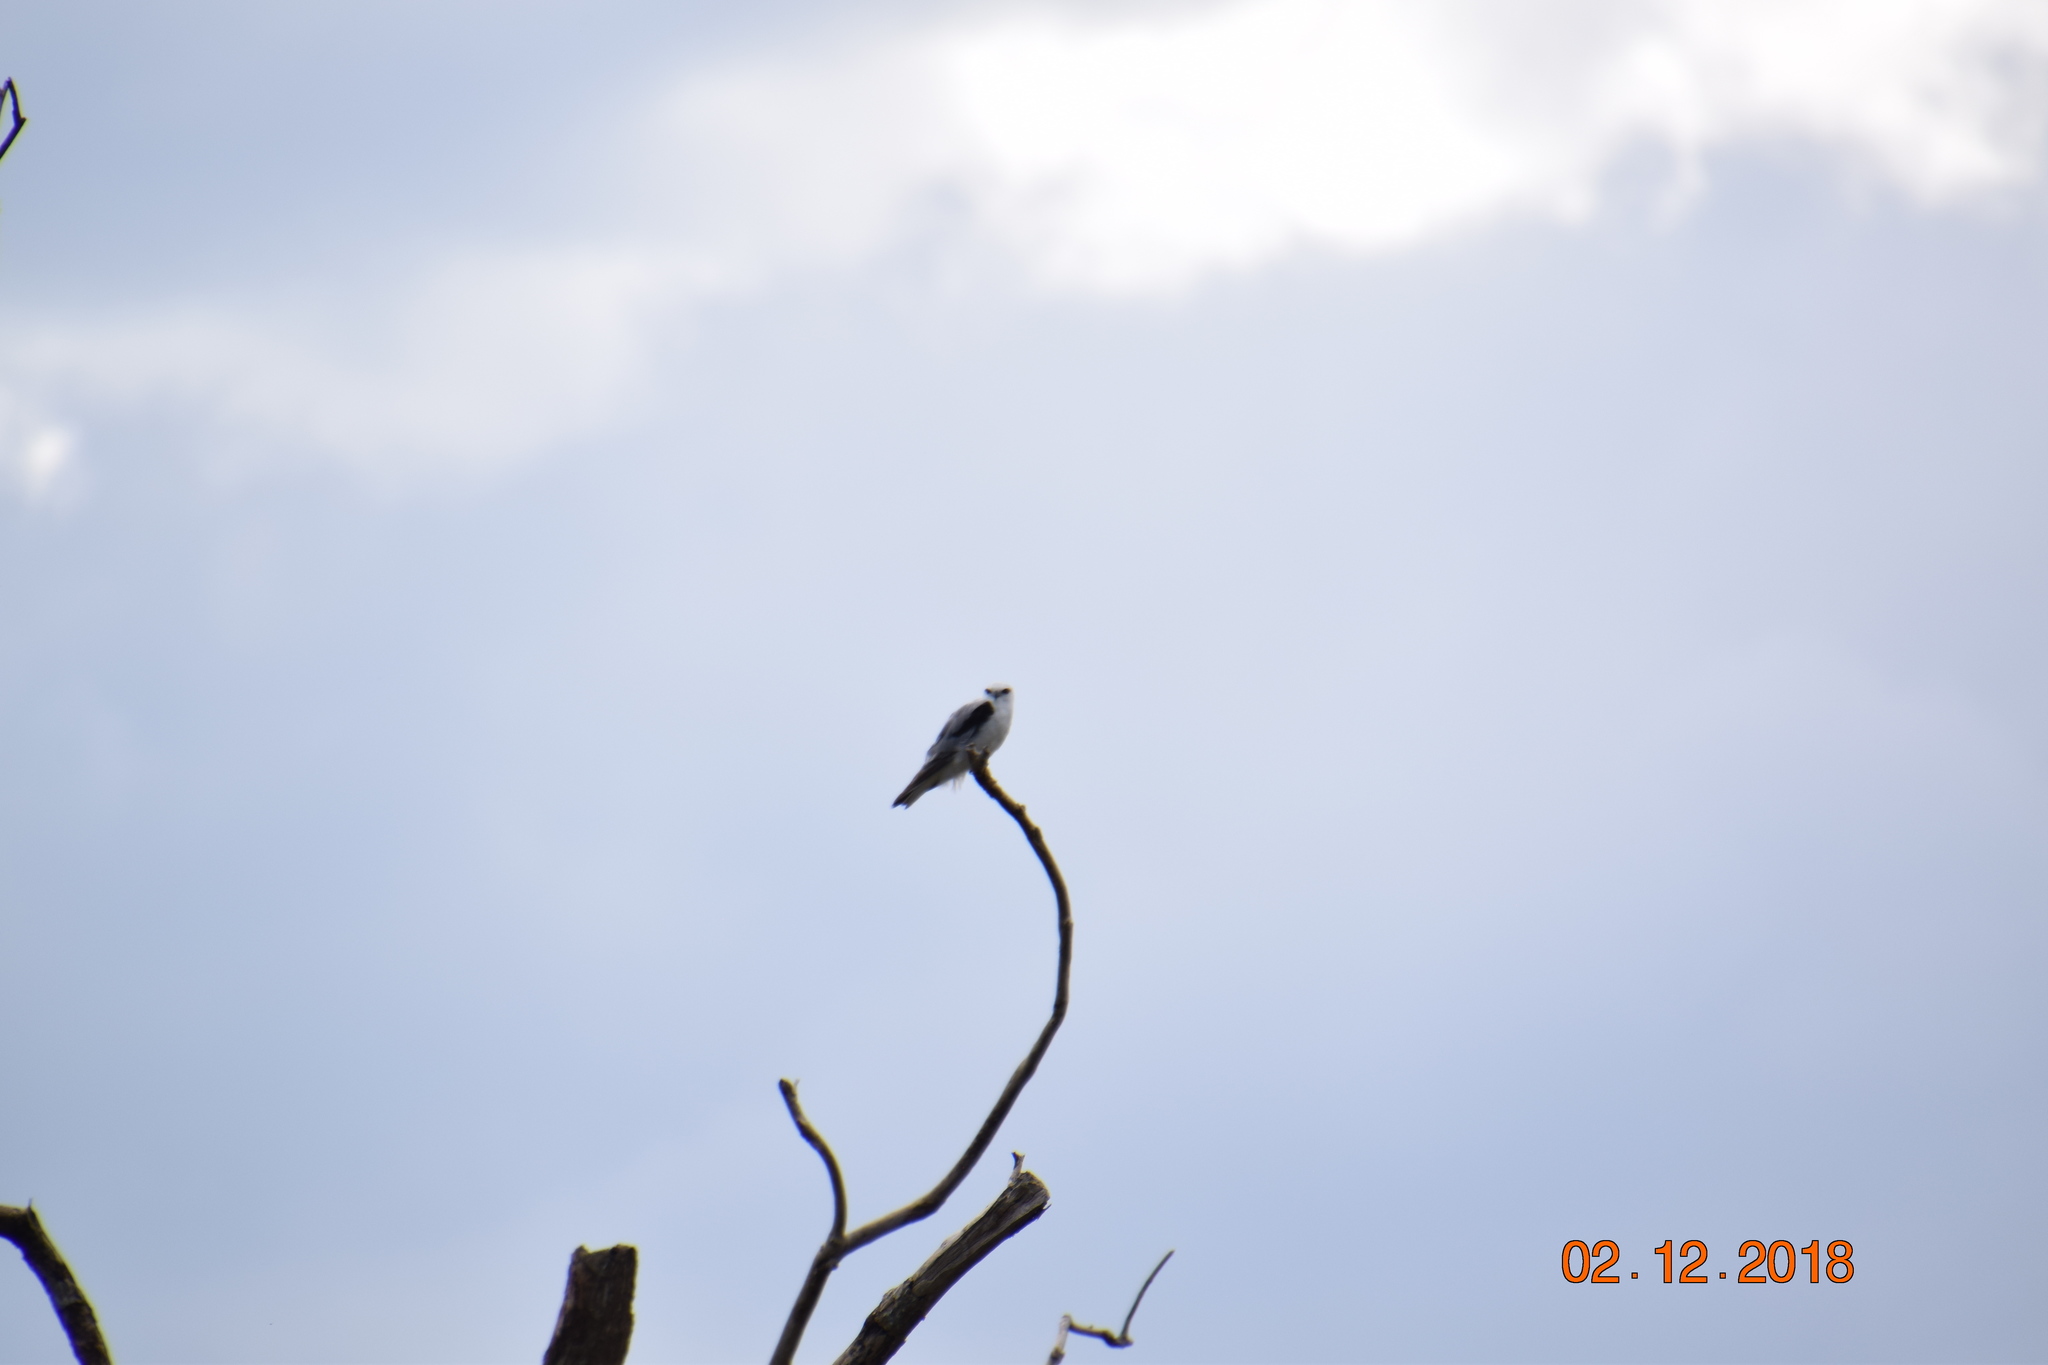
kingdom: Animalia
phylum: Chordata
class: Aves
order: Accipitriformes
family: Accipitridae
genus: Elanus
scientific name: Elanus axillaris
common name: Black-shouldered kite
